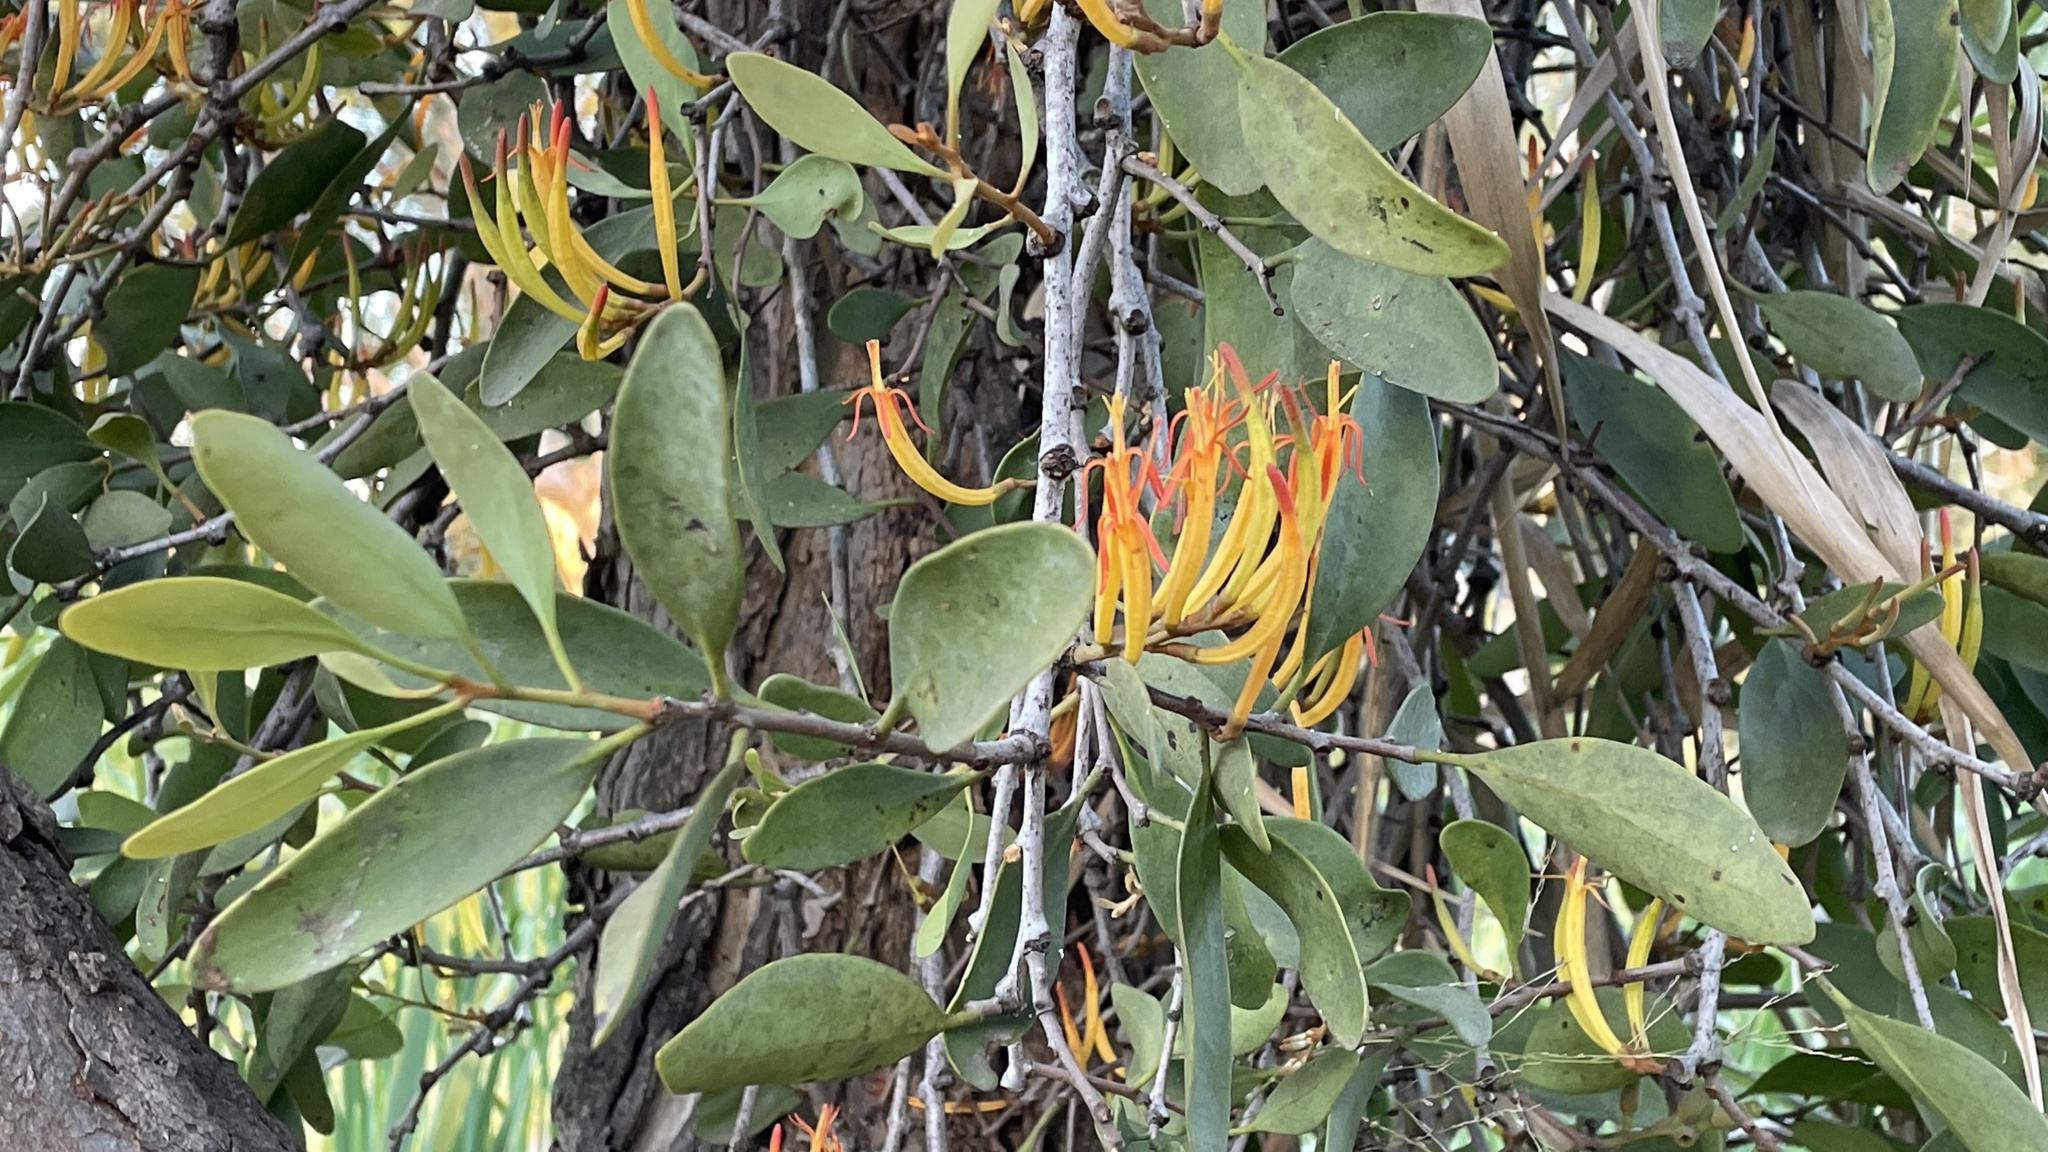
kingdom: Plantae
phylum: Tracheophyta
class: Magnoliopsida
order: Santalales
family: Loranthaceae
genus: Dendrophthoe
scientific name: Dendrophthoe vitellina
